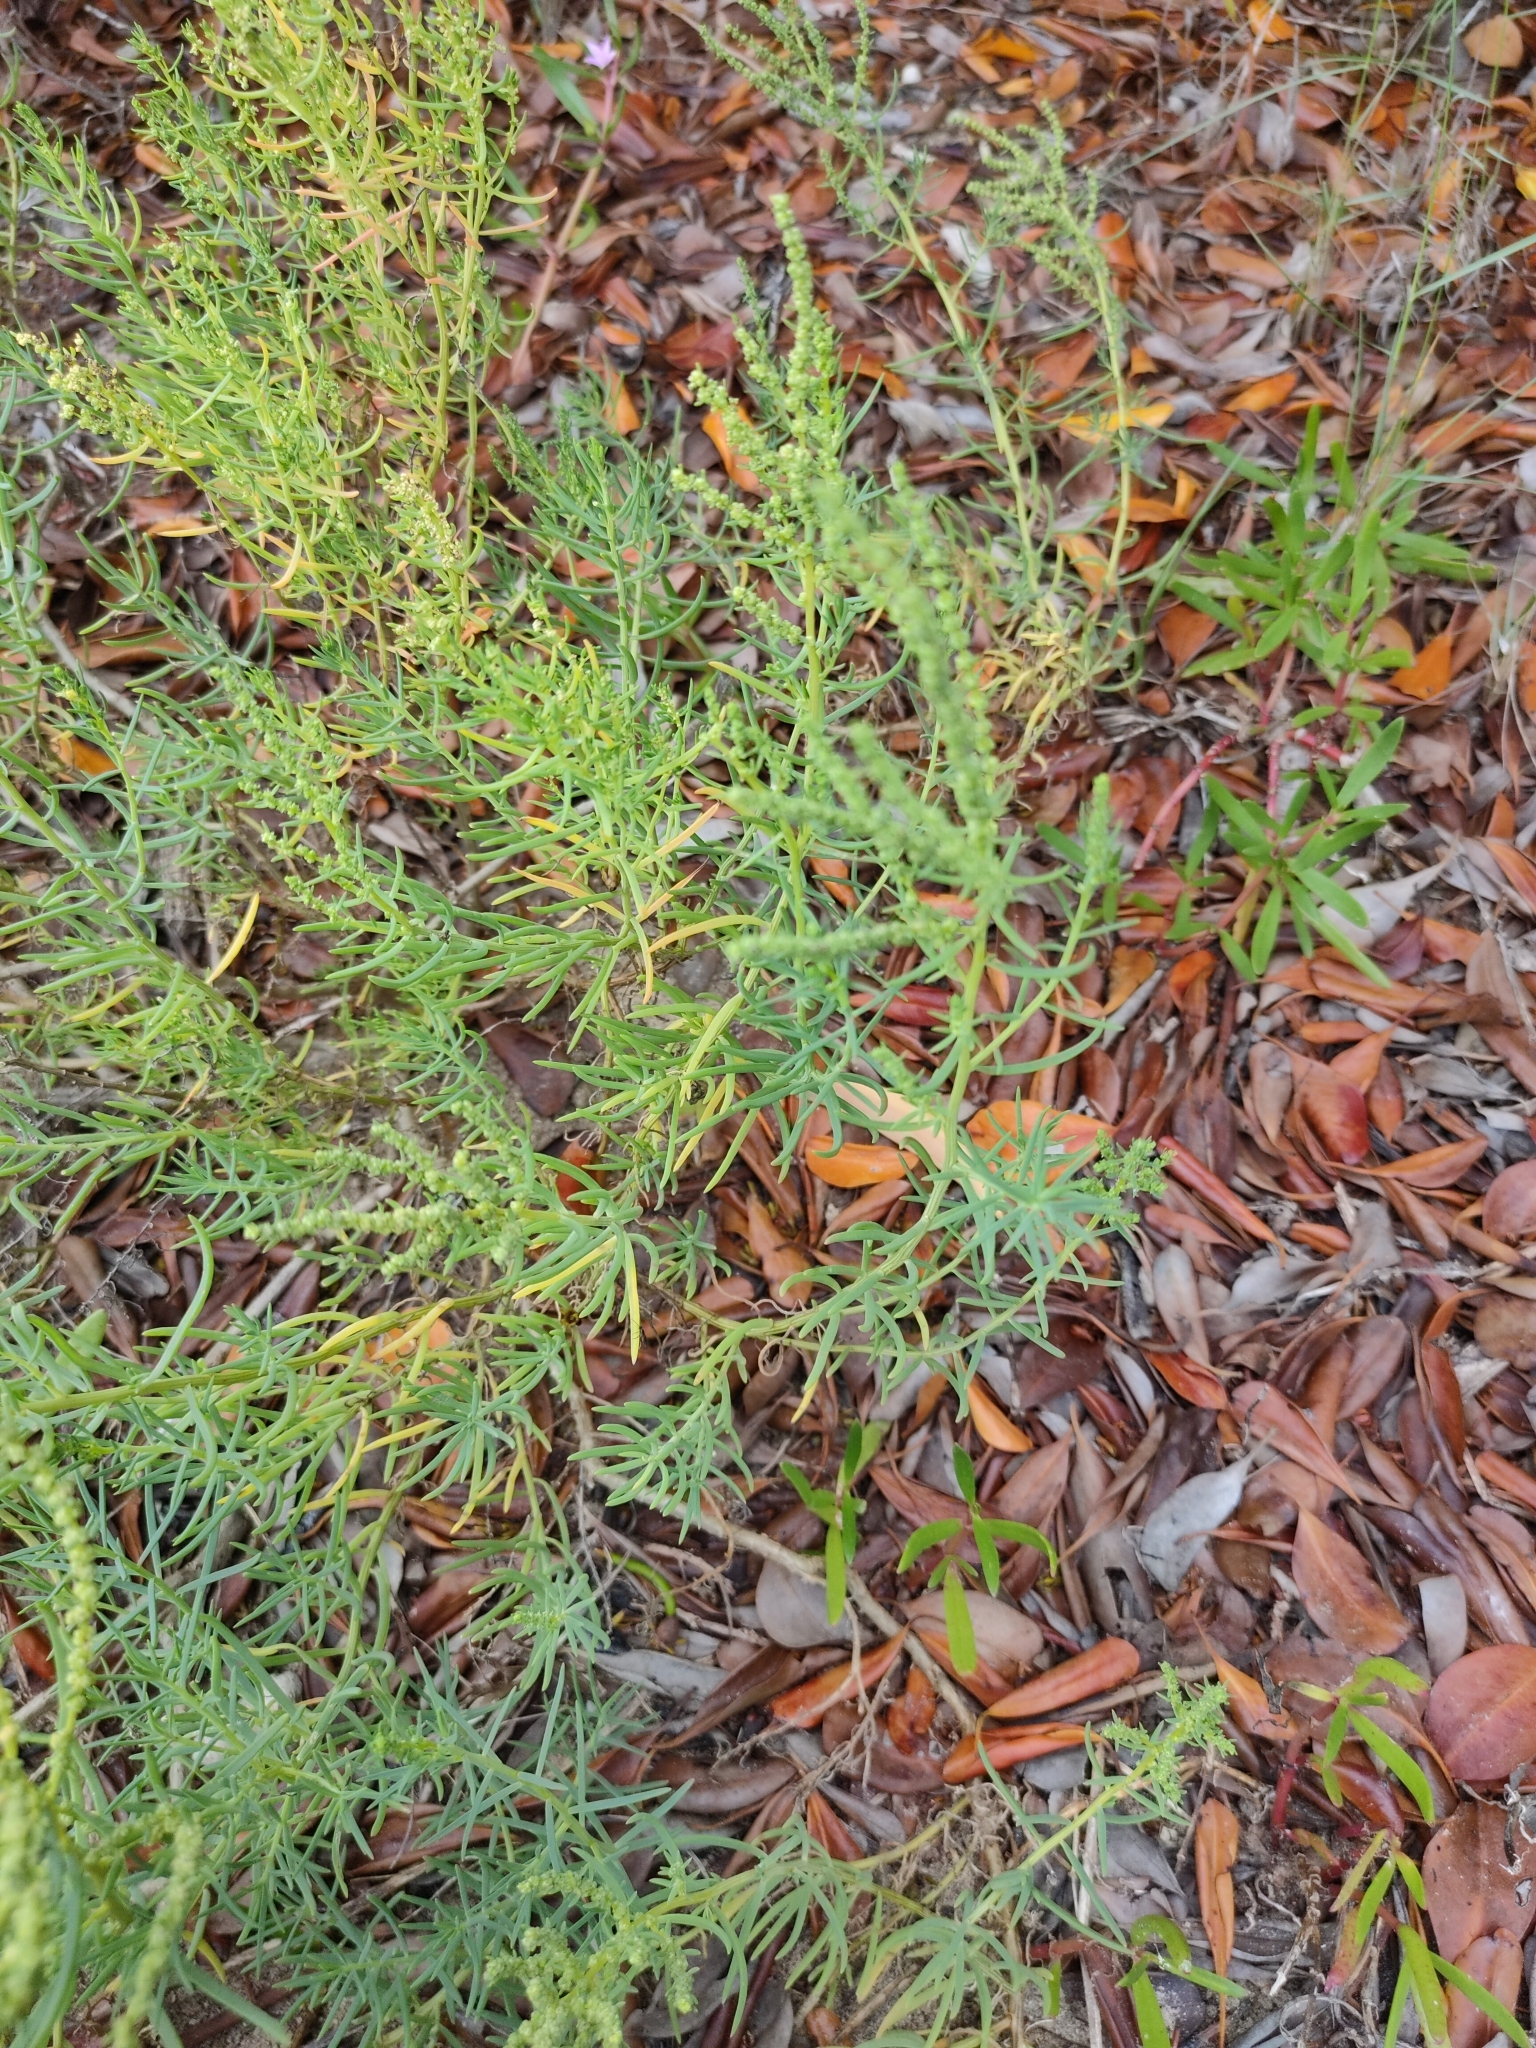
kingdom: Plantae
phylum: Tracheophyta
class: Magnoliopsida
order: Caryophyllales
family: Amaranthaceae
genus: Suaeda
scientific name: Suaeda australis
